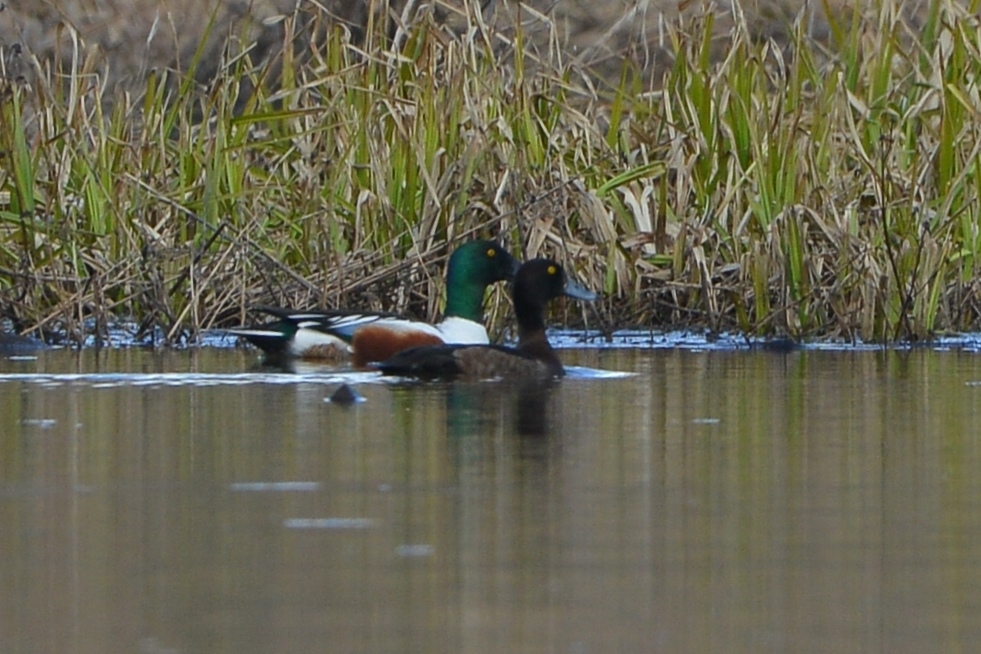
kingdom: Animalia
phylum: Chordata
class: Aves
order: Anseriformes
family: Anatidae
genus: Aythya
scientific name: Aythya fuligula
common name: Tufted duck
